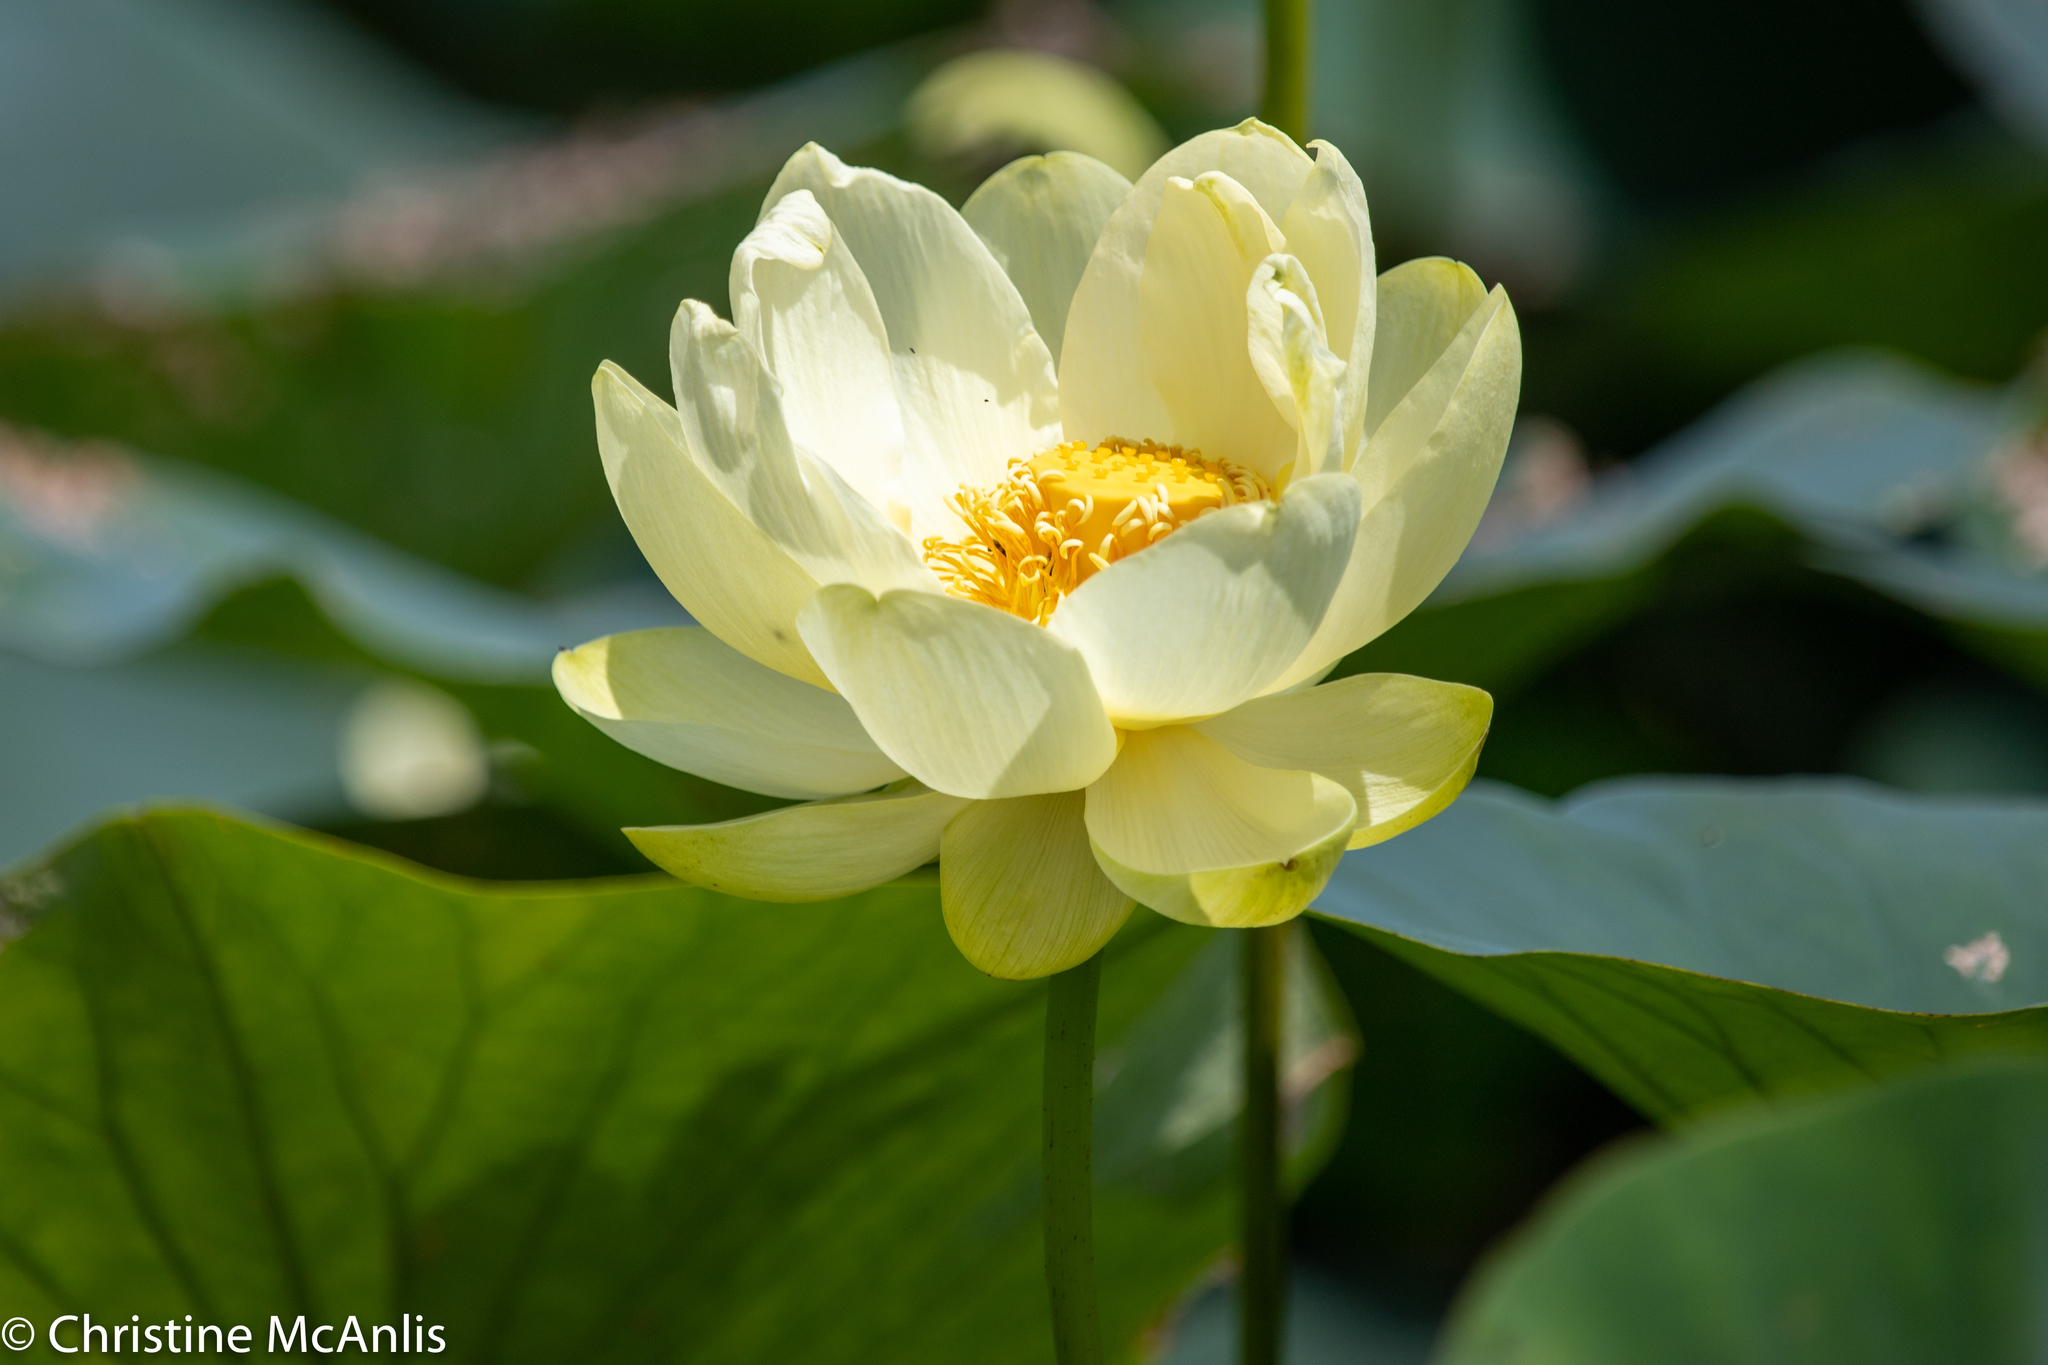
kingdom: Plantae
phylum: Tracheophyta
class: Magnoliopsida
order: Proteales
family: Nelumbonaceae
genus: Nelumbo
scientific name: Nelumbo lutea
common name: American lotus
